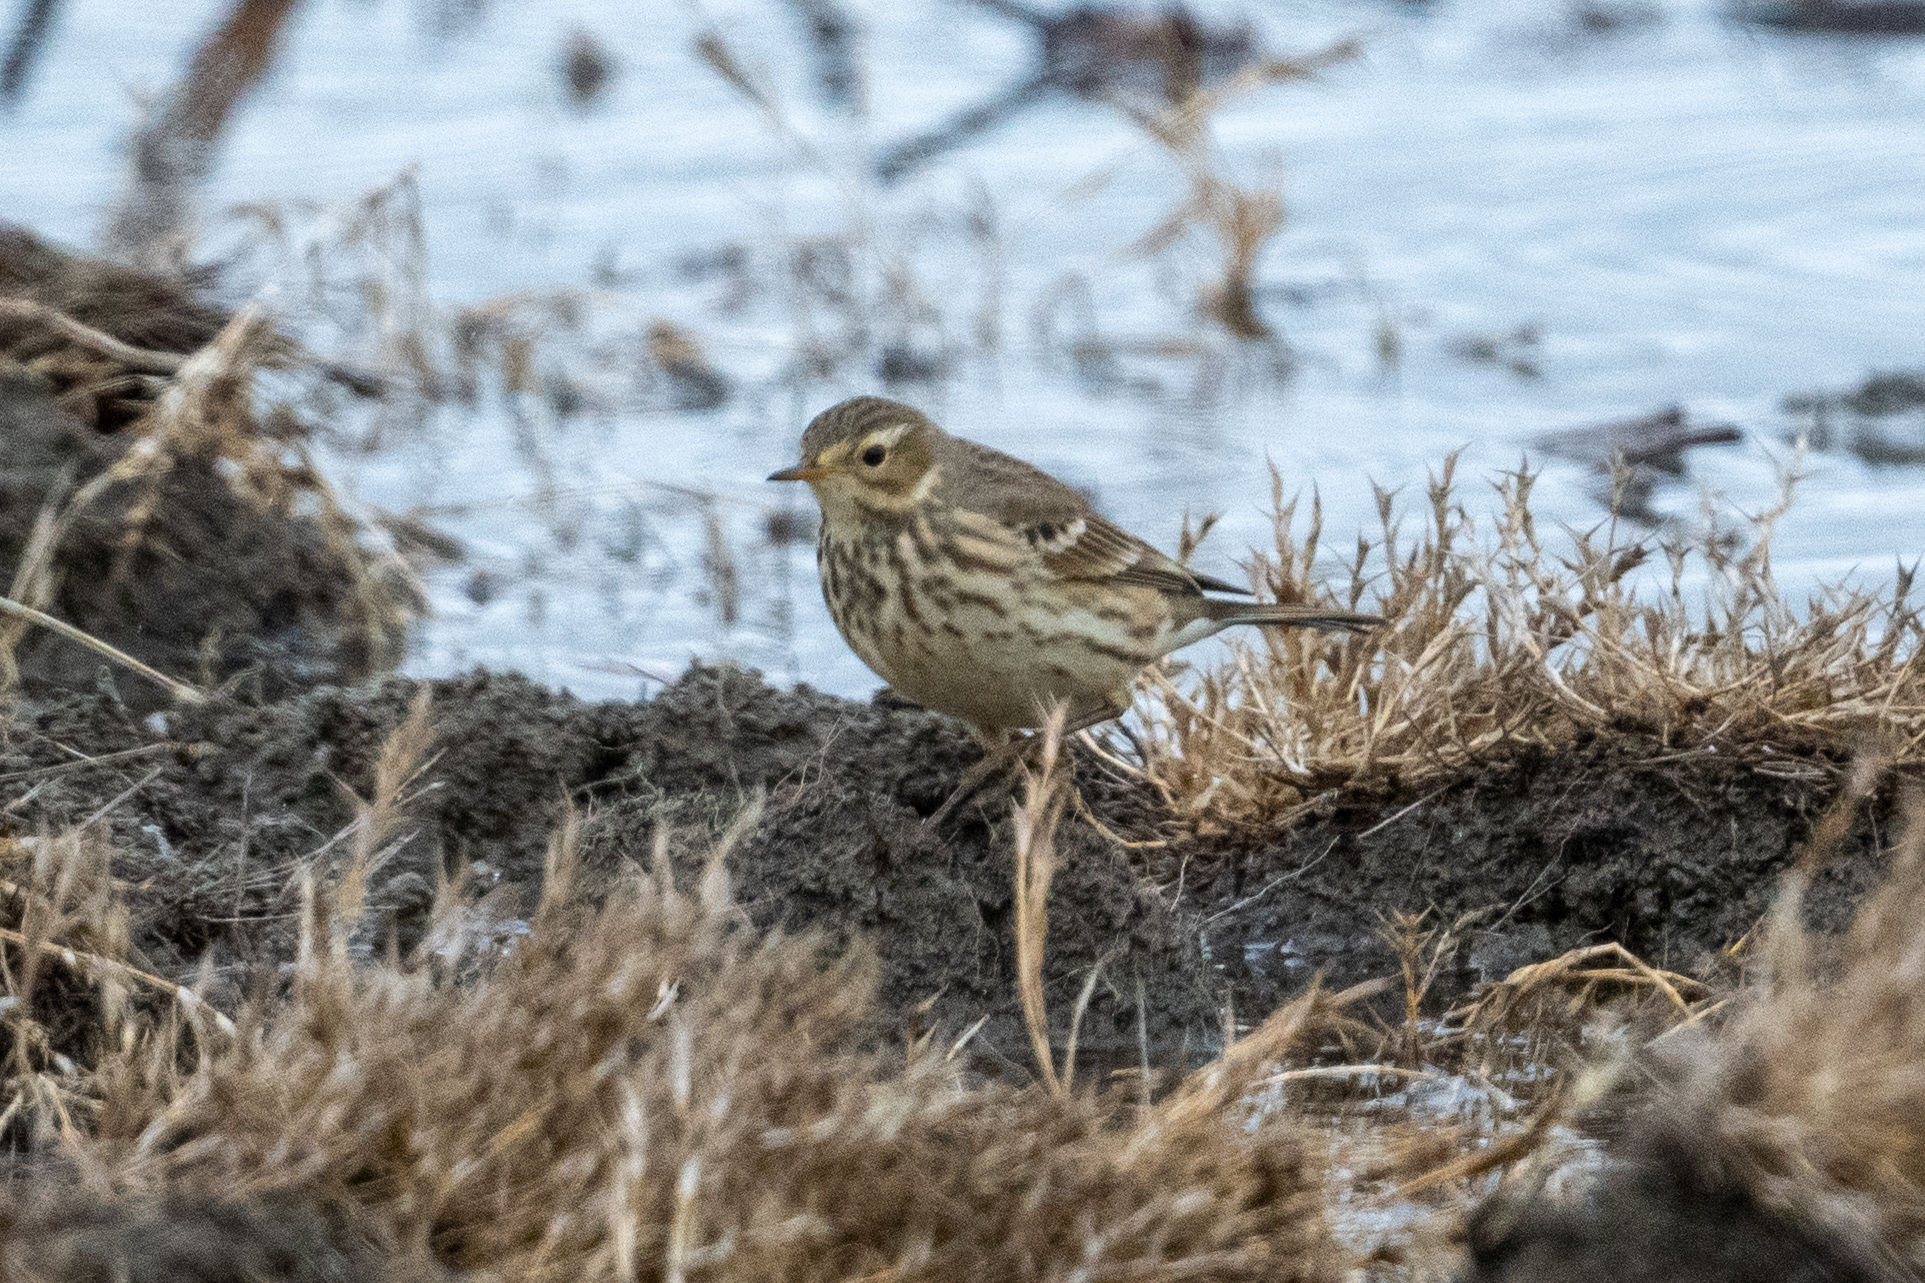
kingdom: Animalia
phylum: Chordata
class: Aves
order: Passeriformes
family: Motacillidae
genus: Anthus
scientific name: Anthus rubescens
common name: Buff-bellied pipit
